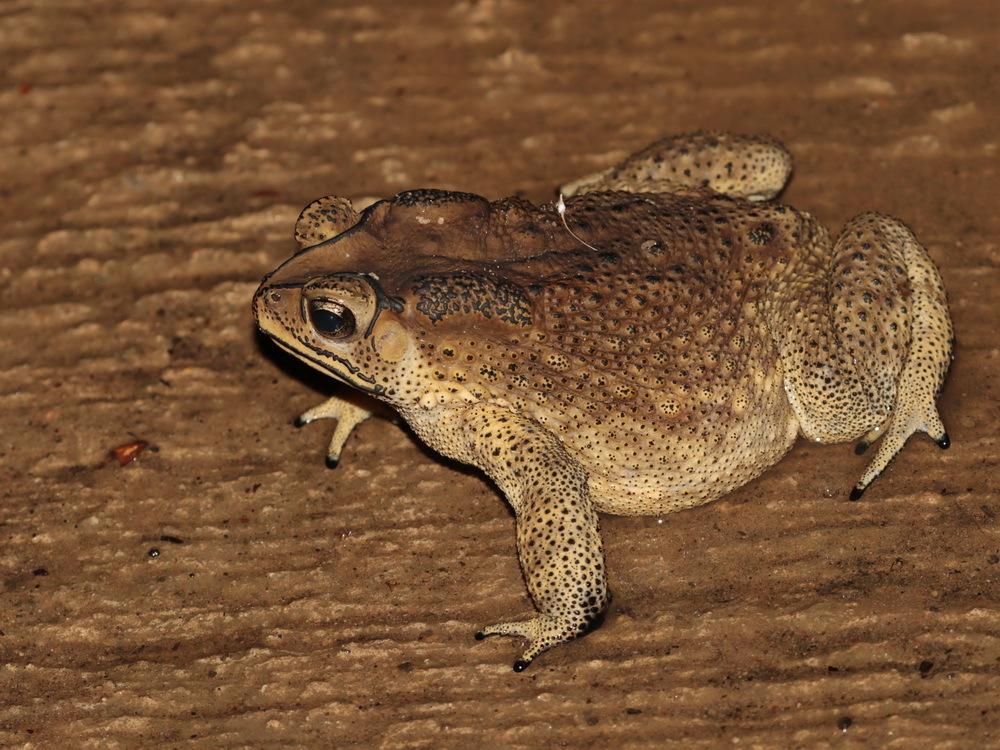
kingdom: Animalia
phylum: Chordata
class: Amphibia
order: Anura
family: Bufonidae
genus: Duttaphrynus
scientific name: Duttaphrynus melanostictus
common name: Common sunda toad
